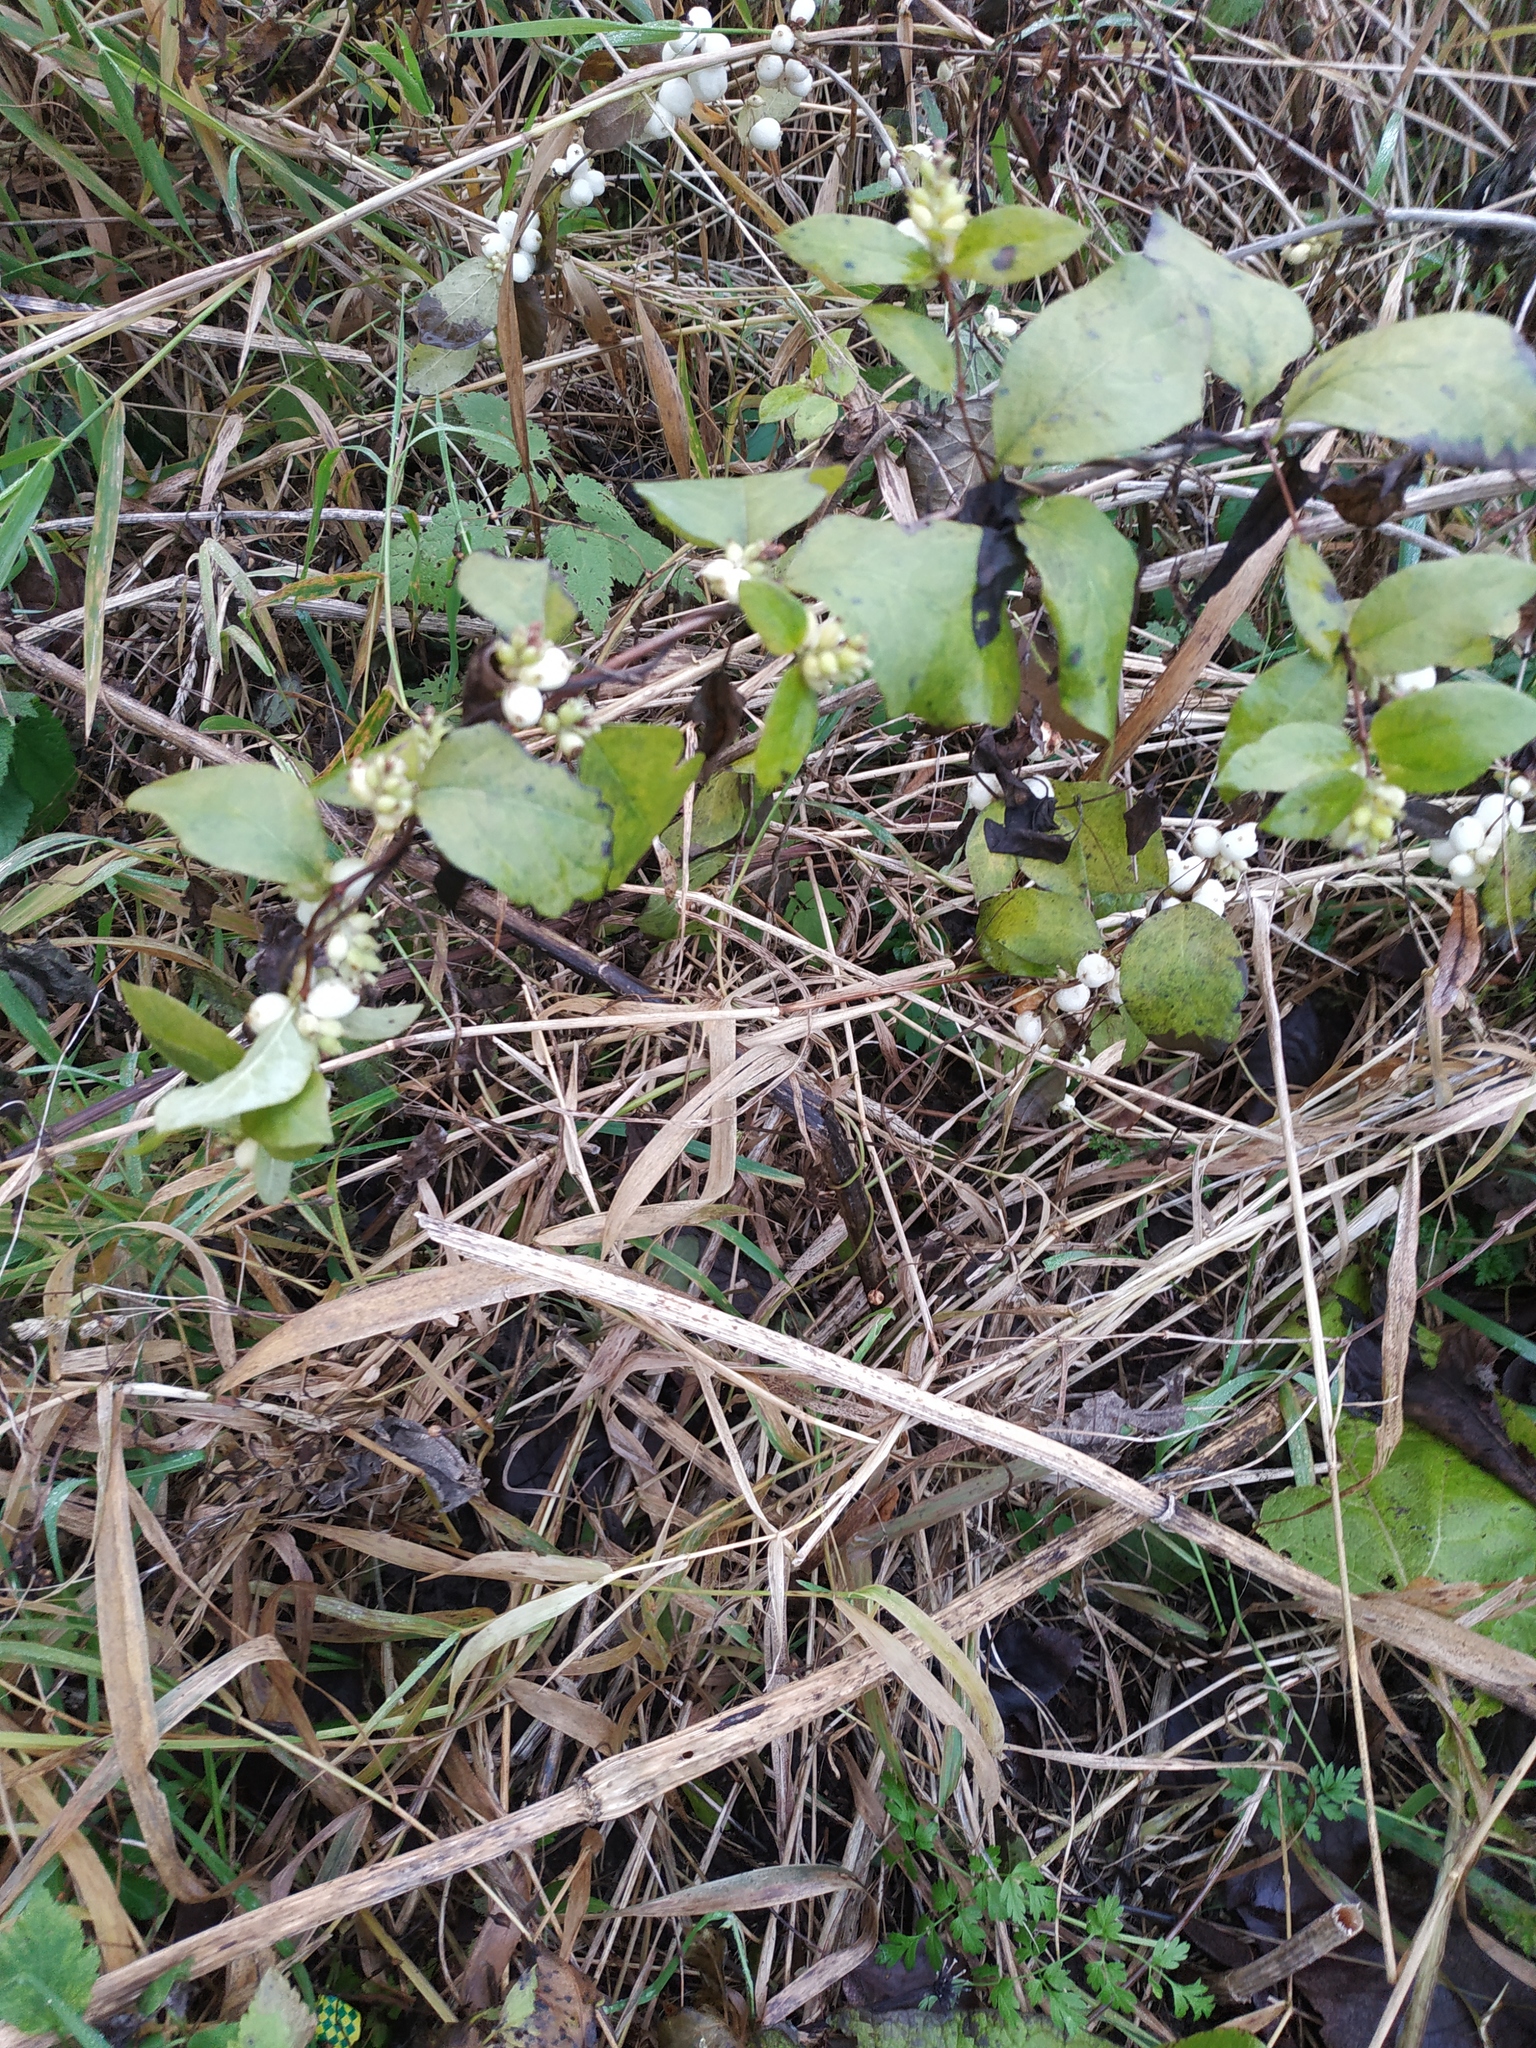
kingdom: Plantae
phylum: Tracheophyta
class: Magnoliopsida
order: Dipsacales
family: Caprifoliaceae
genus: Symphoricarpos
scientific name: Symphoricarpos albus
